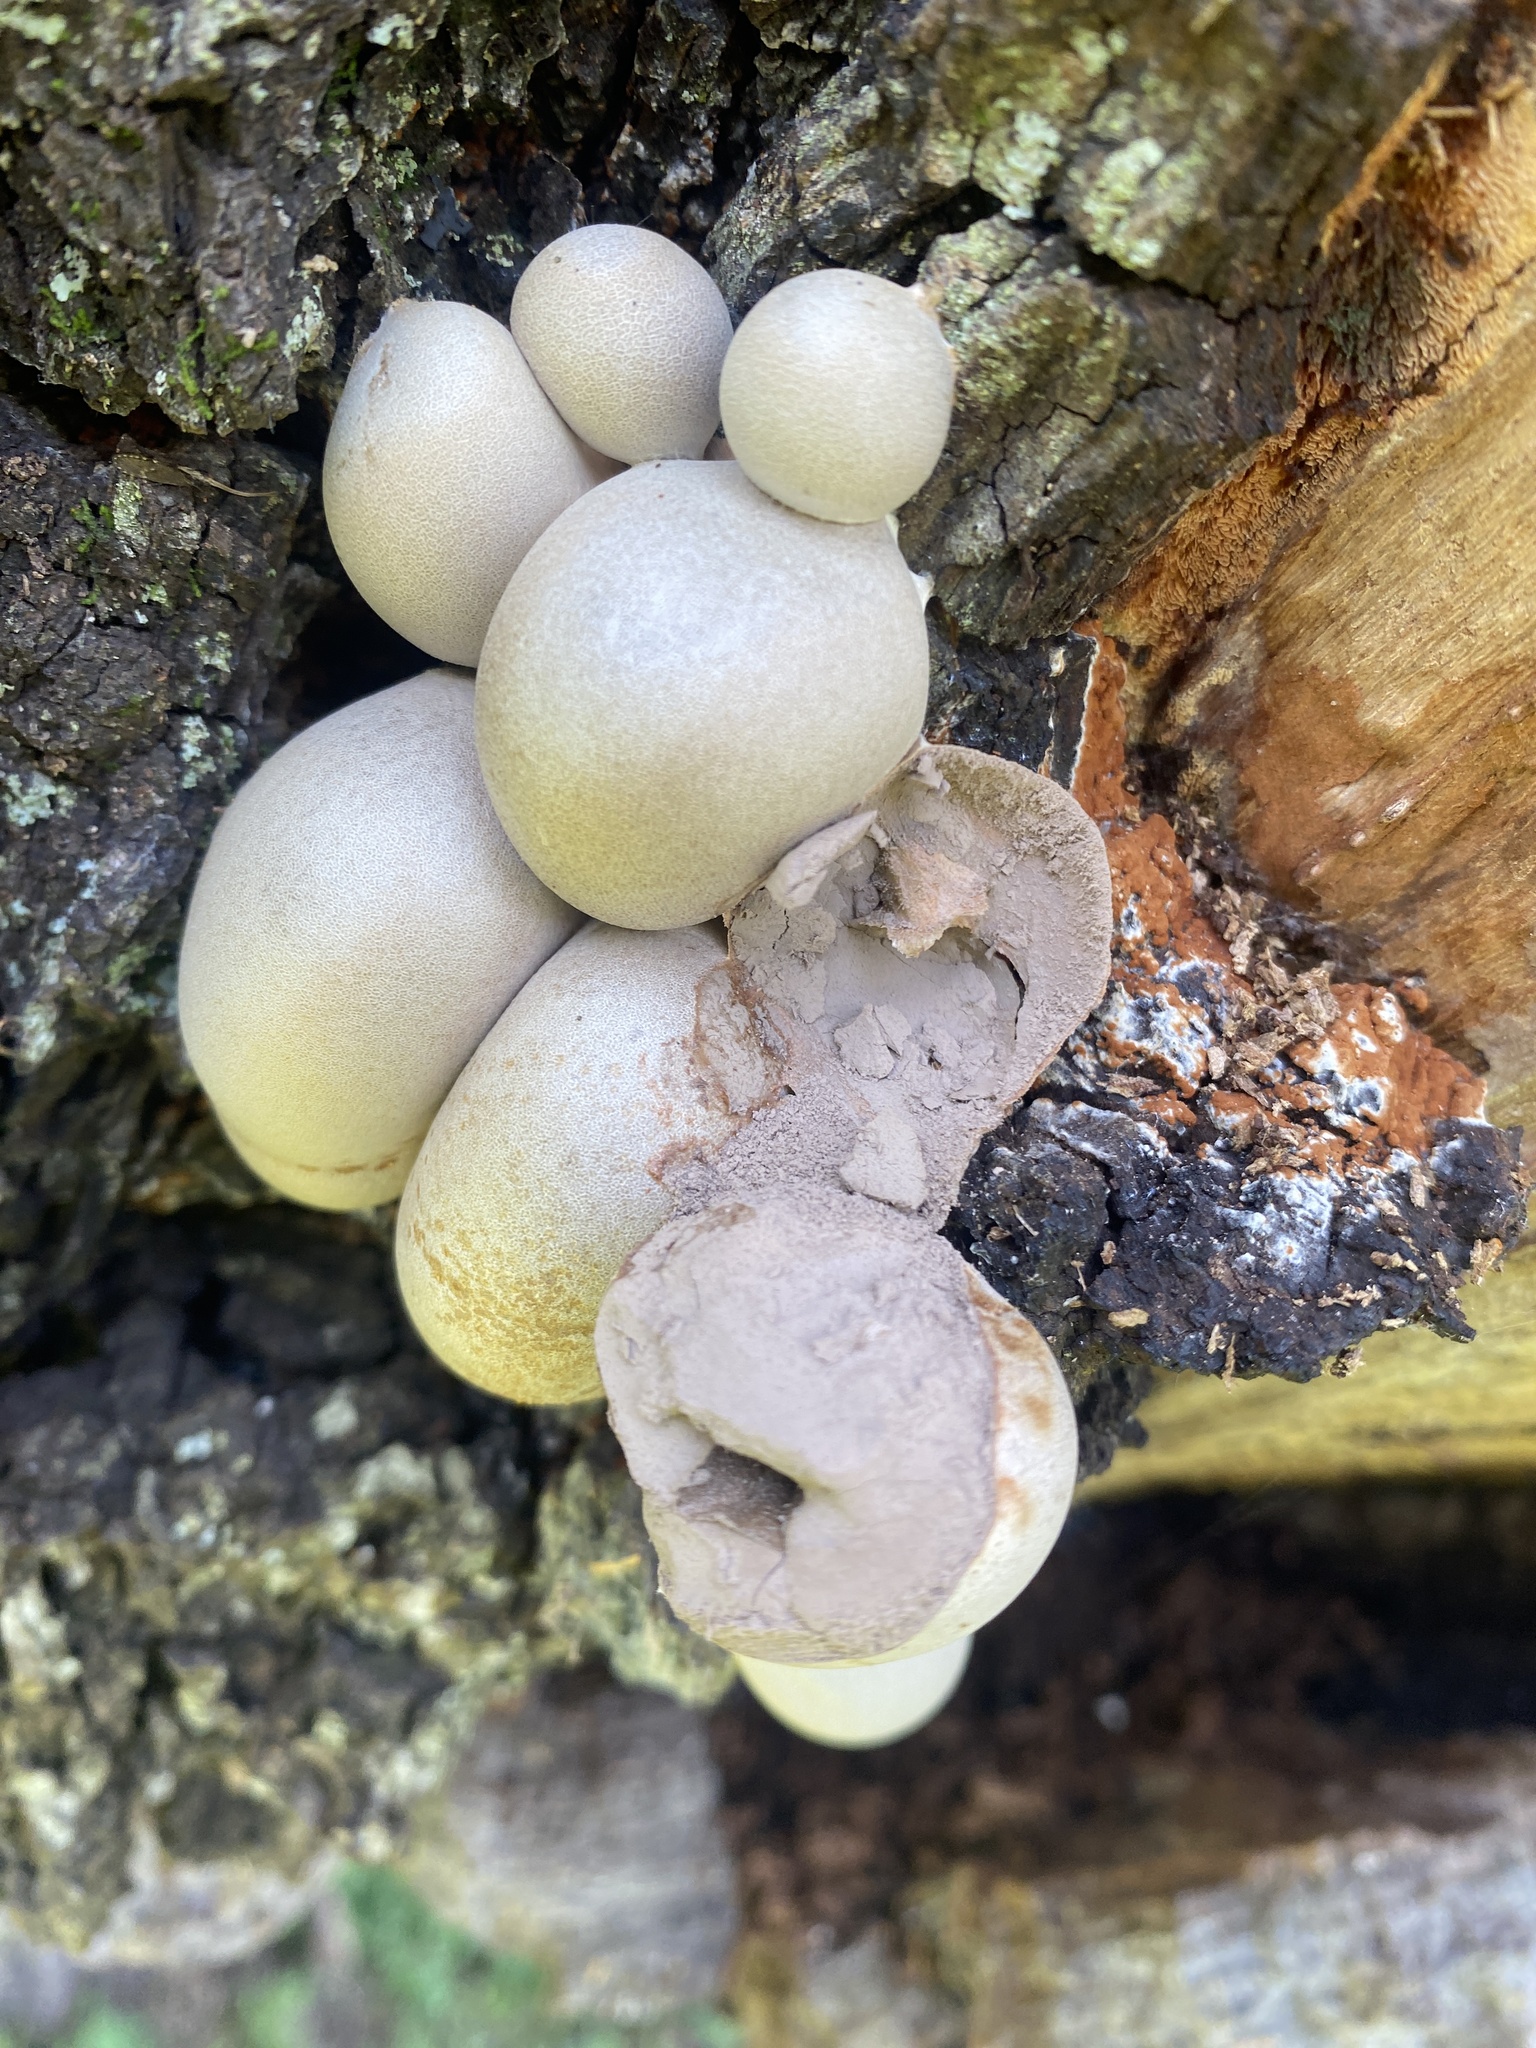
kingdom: Protozoa
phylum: Mycetozoa
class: Myxomycetes
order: Cribrariales
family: Tubiferaceae
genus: Lycogala
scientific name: Lycogala flavofuscum
